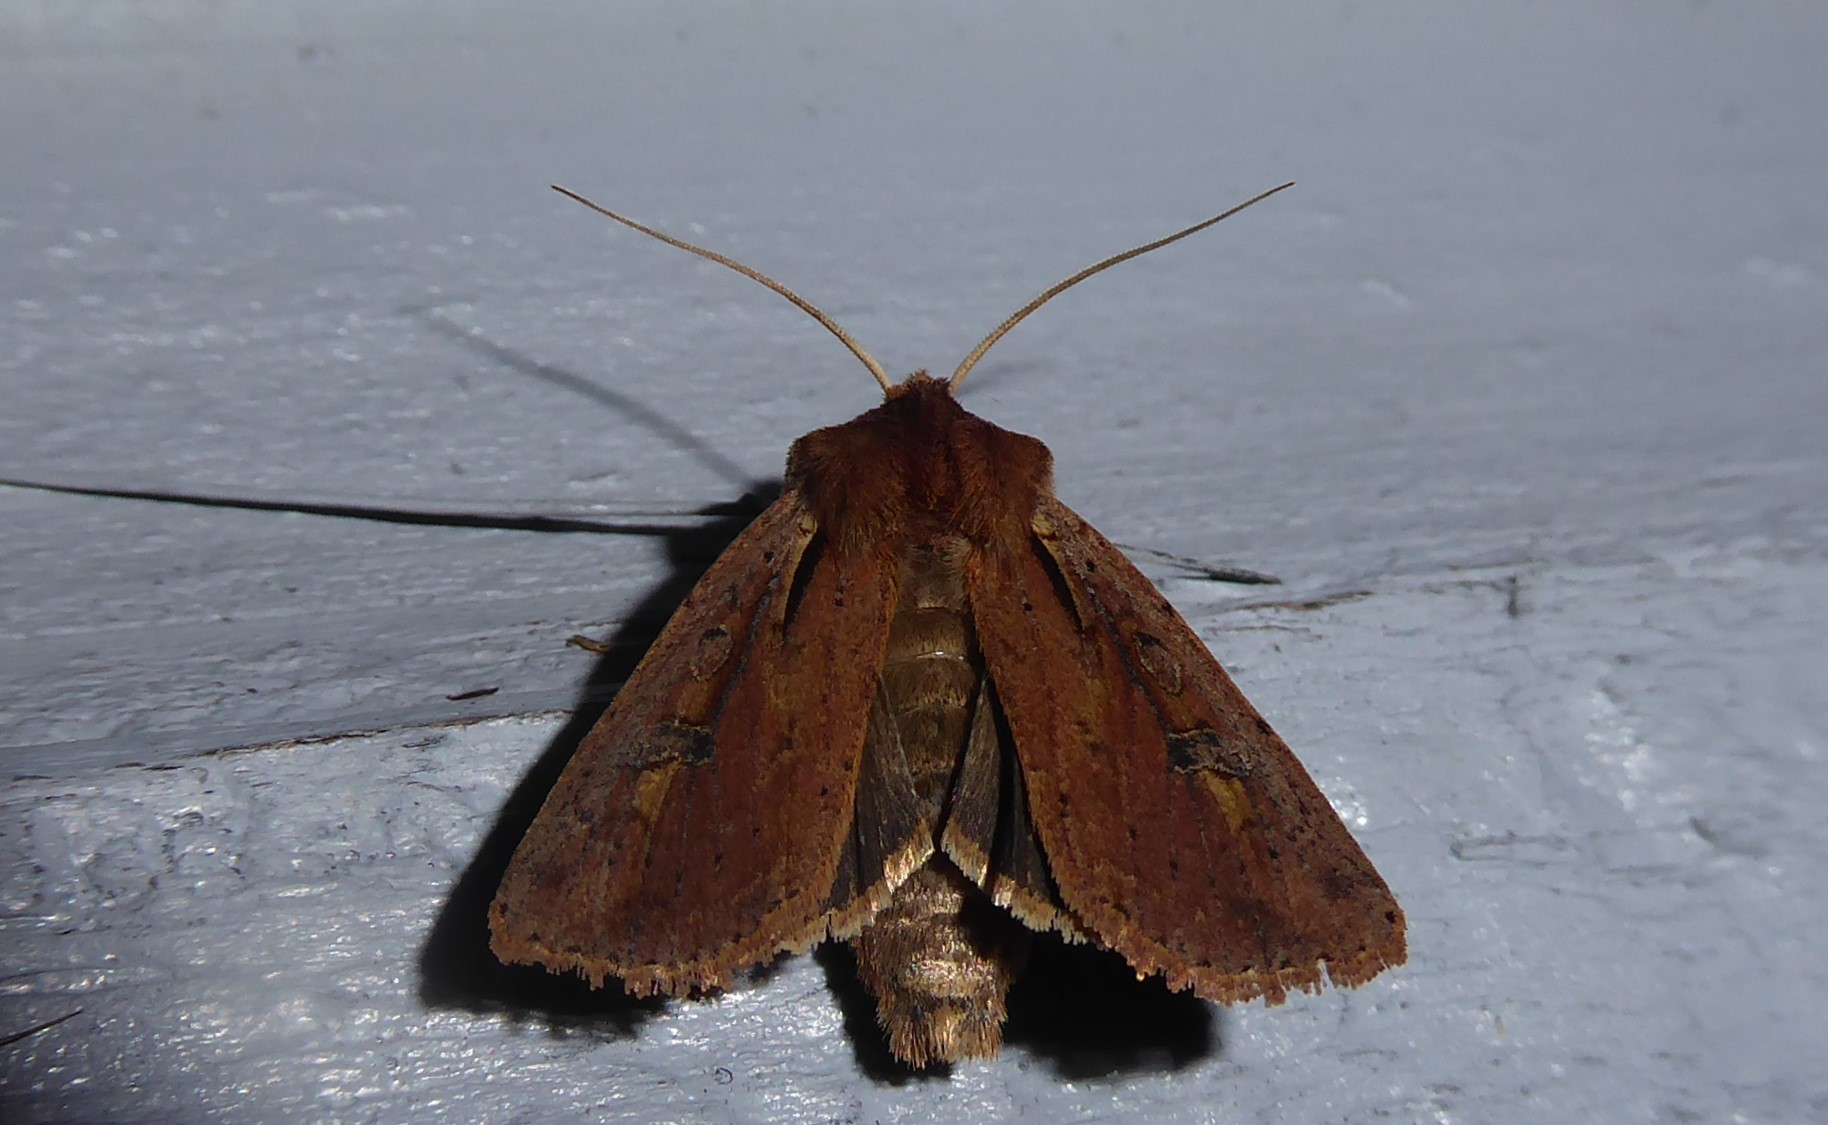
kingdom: Animalia
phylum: Arthropoda
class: Insecta
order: Lepidoptera
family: Noctuidae
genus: Ichneutica
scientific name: Ichneutica atristriga
